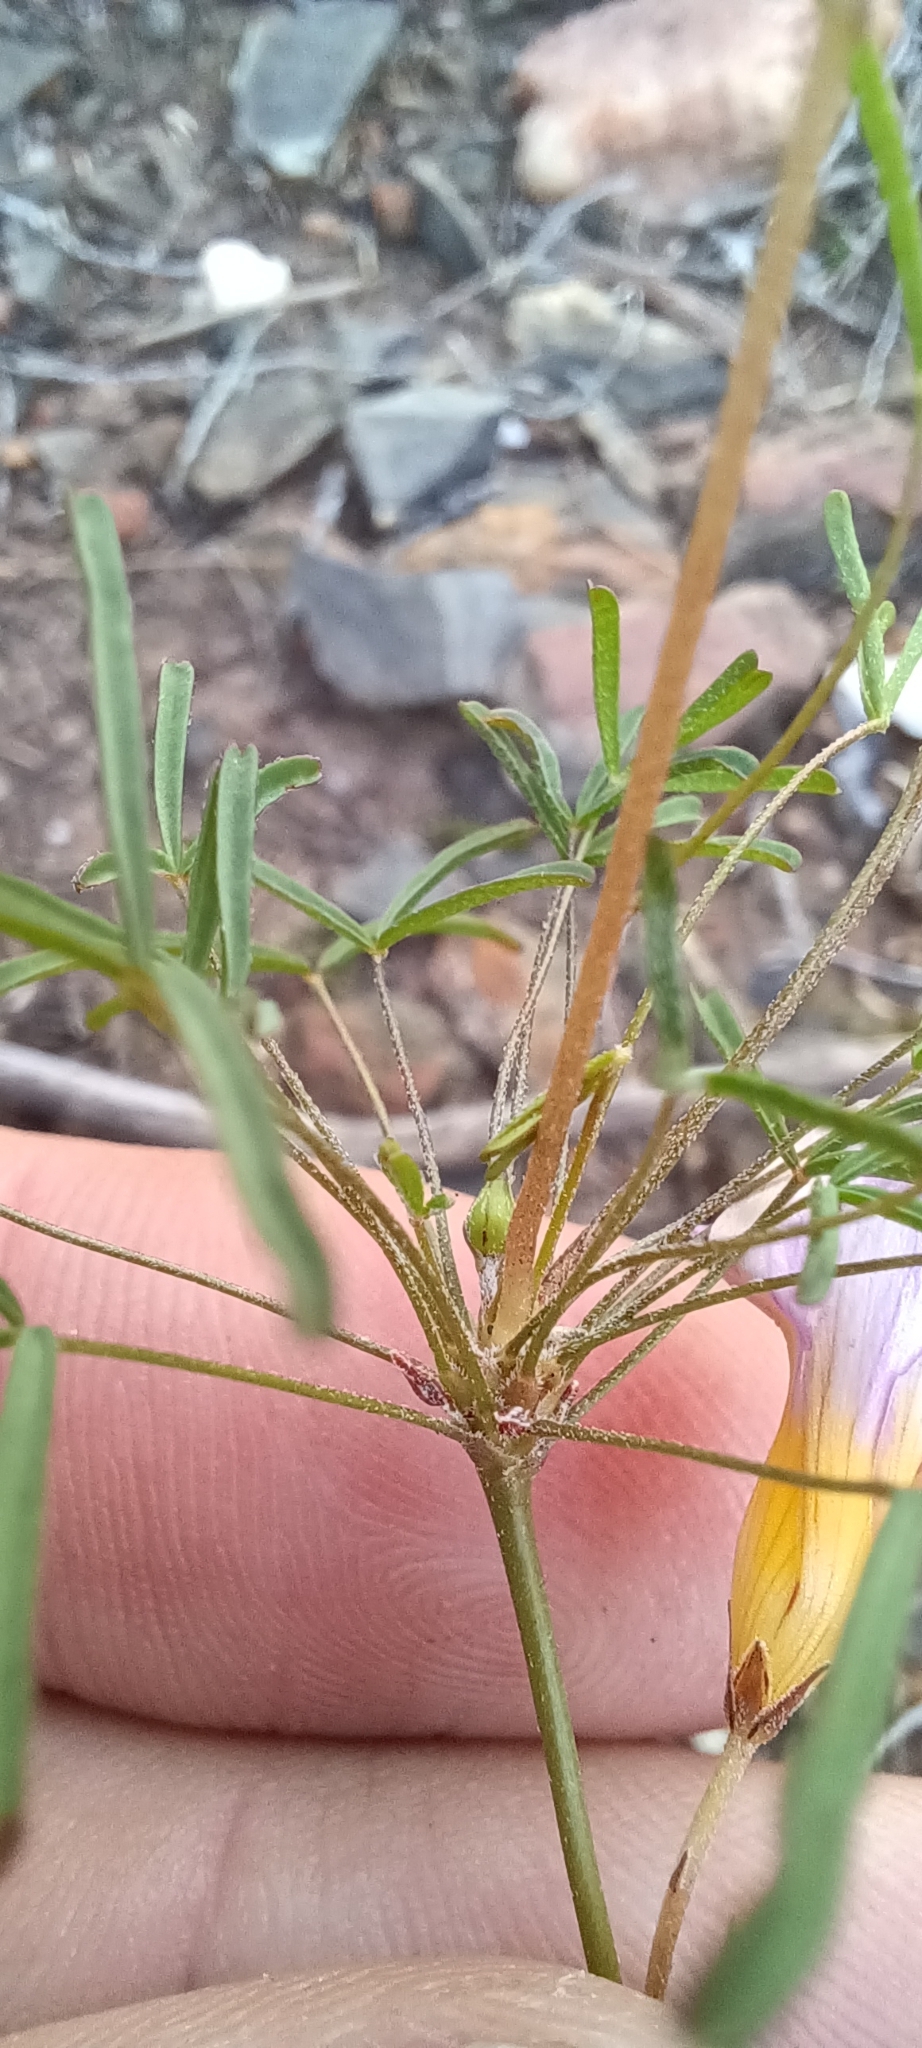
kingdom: Plantae
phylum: Tracheophyta
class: Magnoliopsida
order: Oxalidales
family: Oxalidaceae
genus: Oxalis
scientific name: Oxalis burkei
